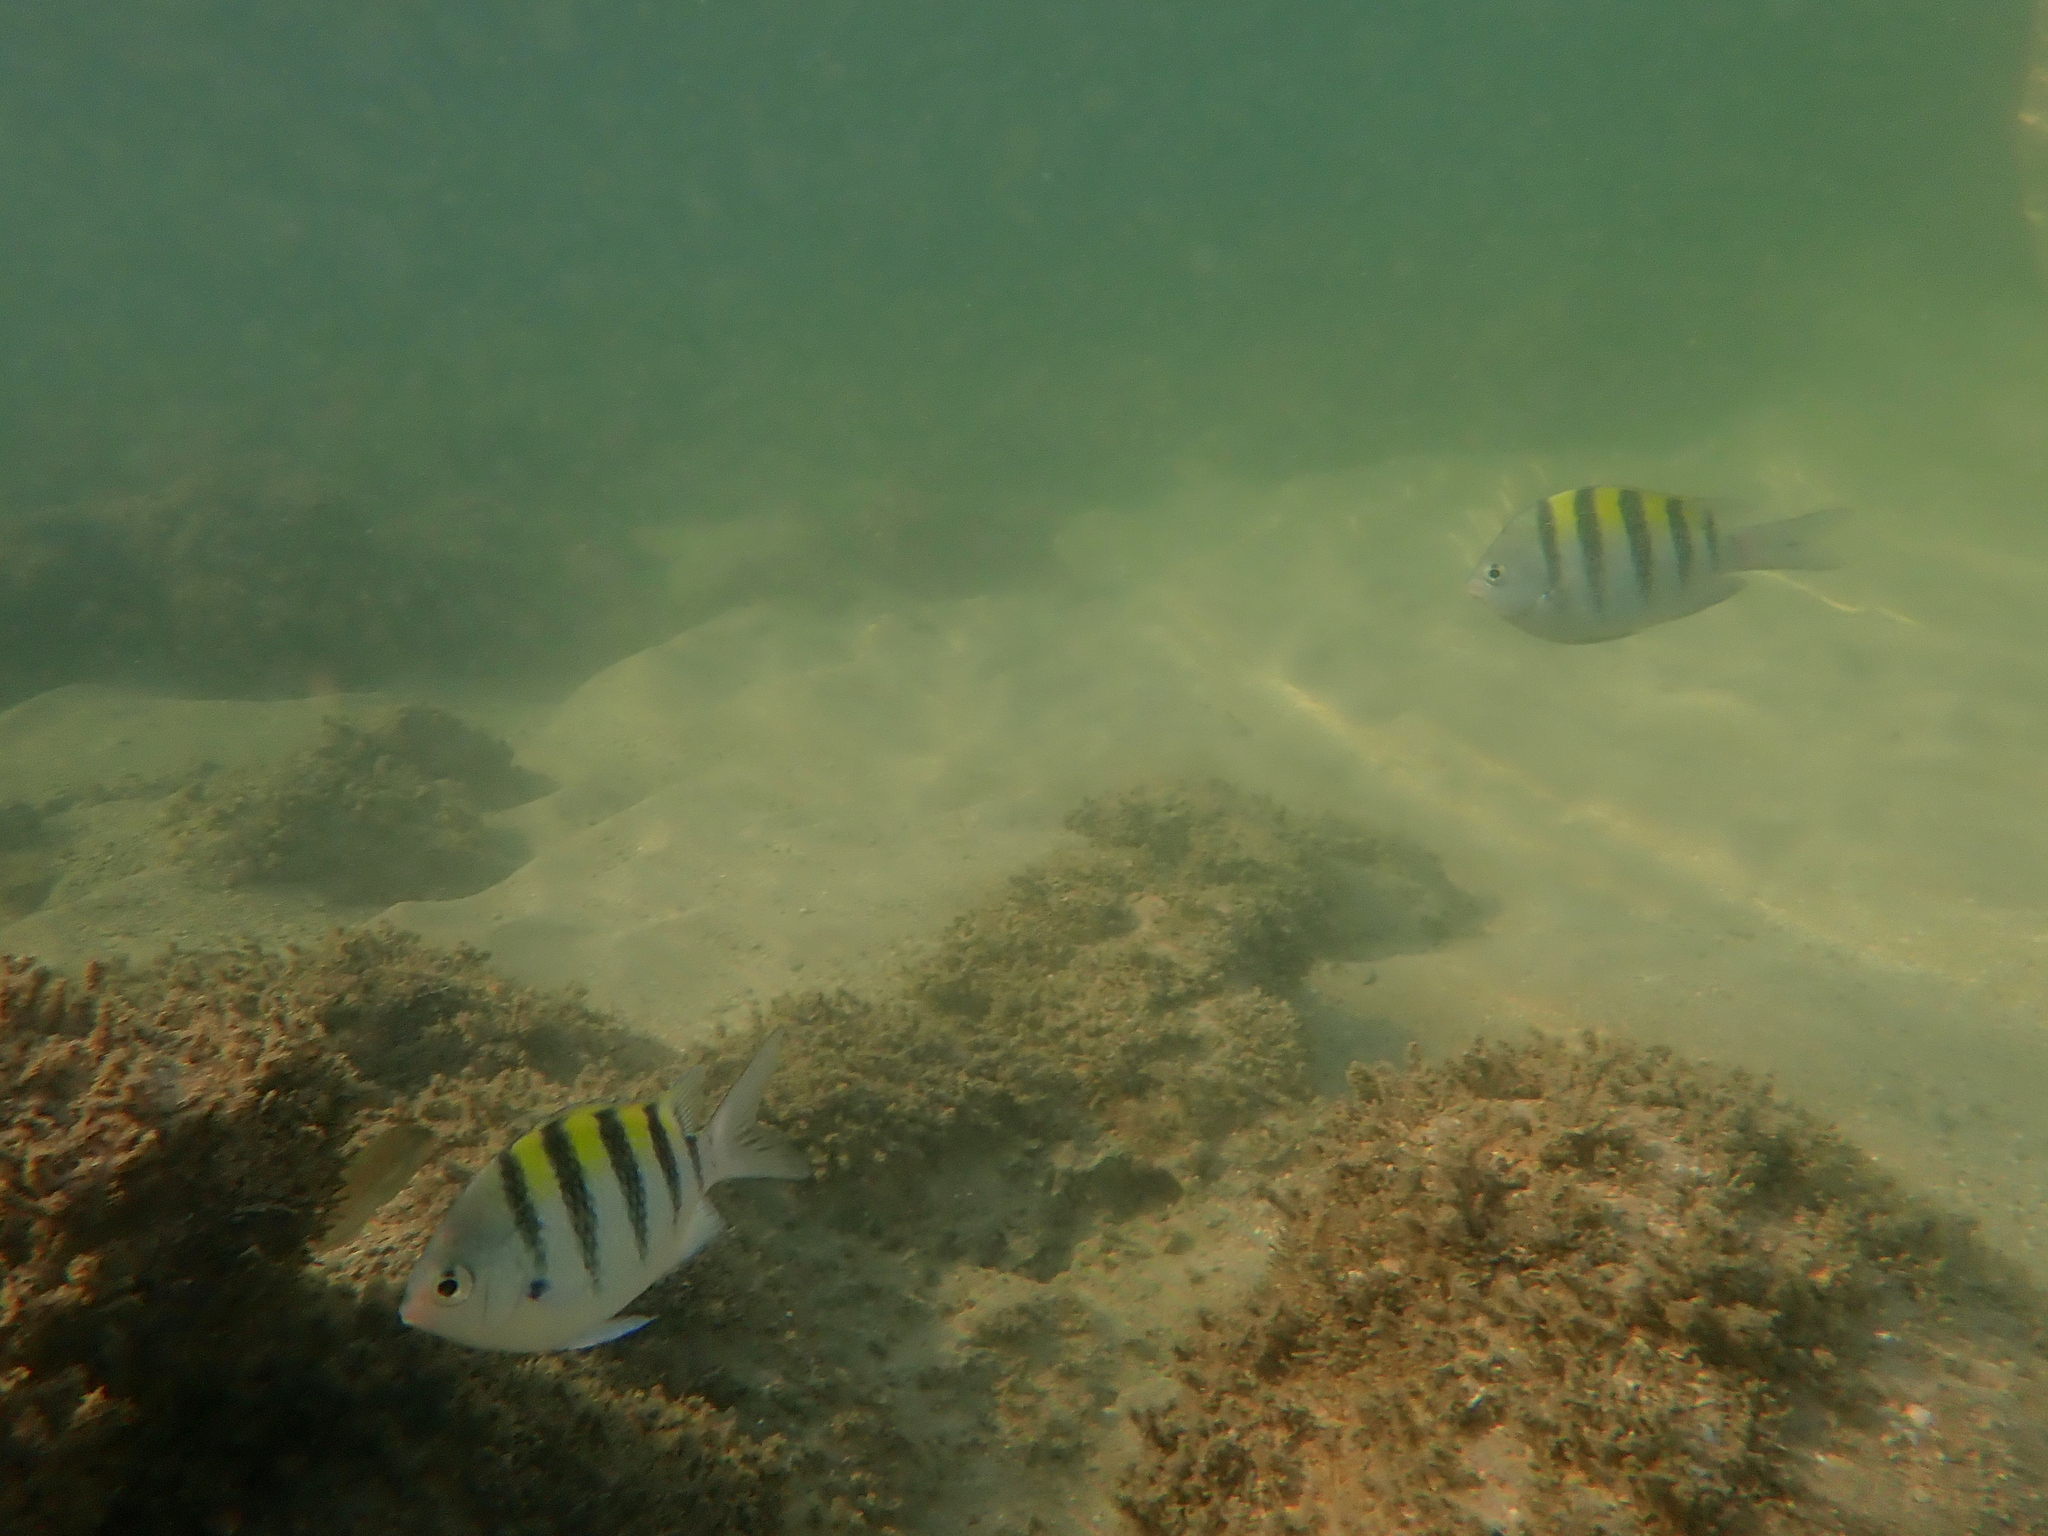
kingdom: Animalia
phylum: Chordata
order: Perciformes
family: Pomacentridae
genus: Abudefduf
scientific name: Abudefduf saxatilis
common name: Sergeant major
